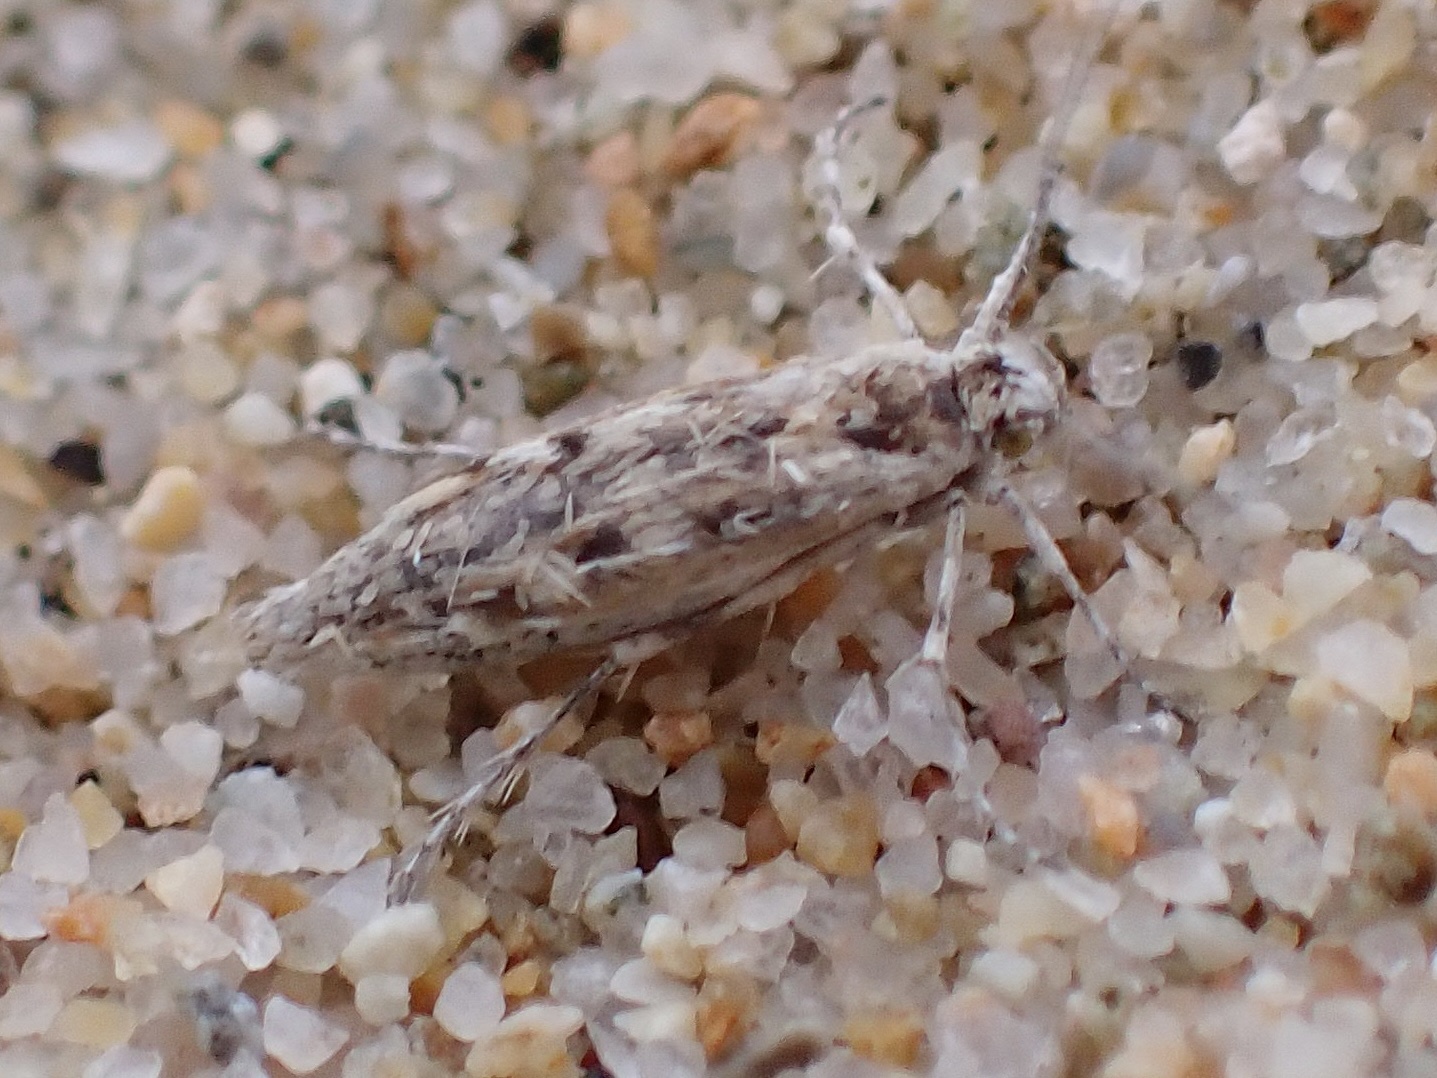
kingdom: Animalia
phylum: Arthropoda
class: Insecta
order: Lepidoptera
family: Scythrididae
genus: Areniscythris
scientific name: Areniscythris brachypteris
